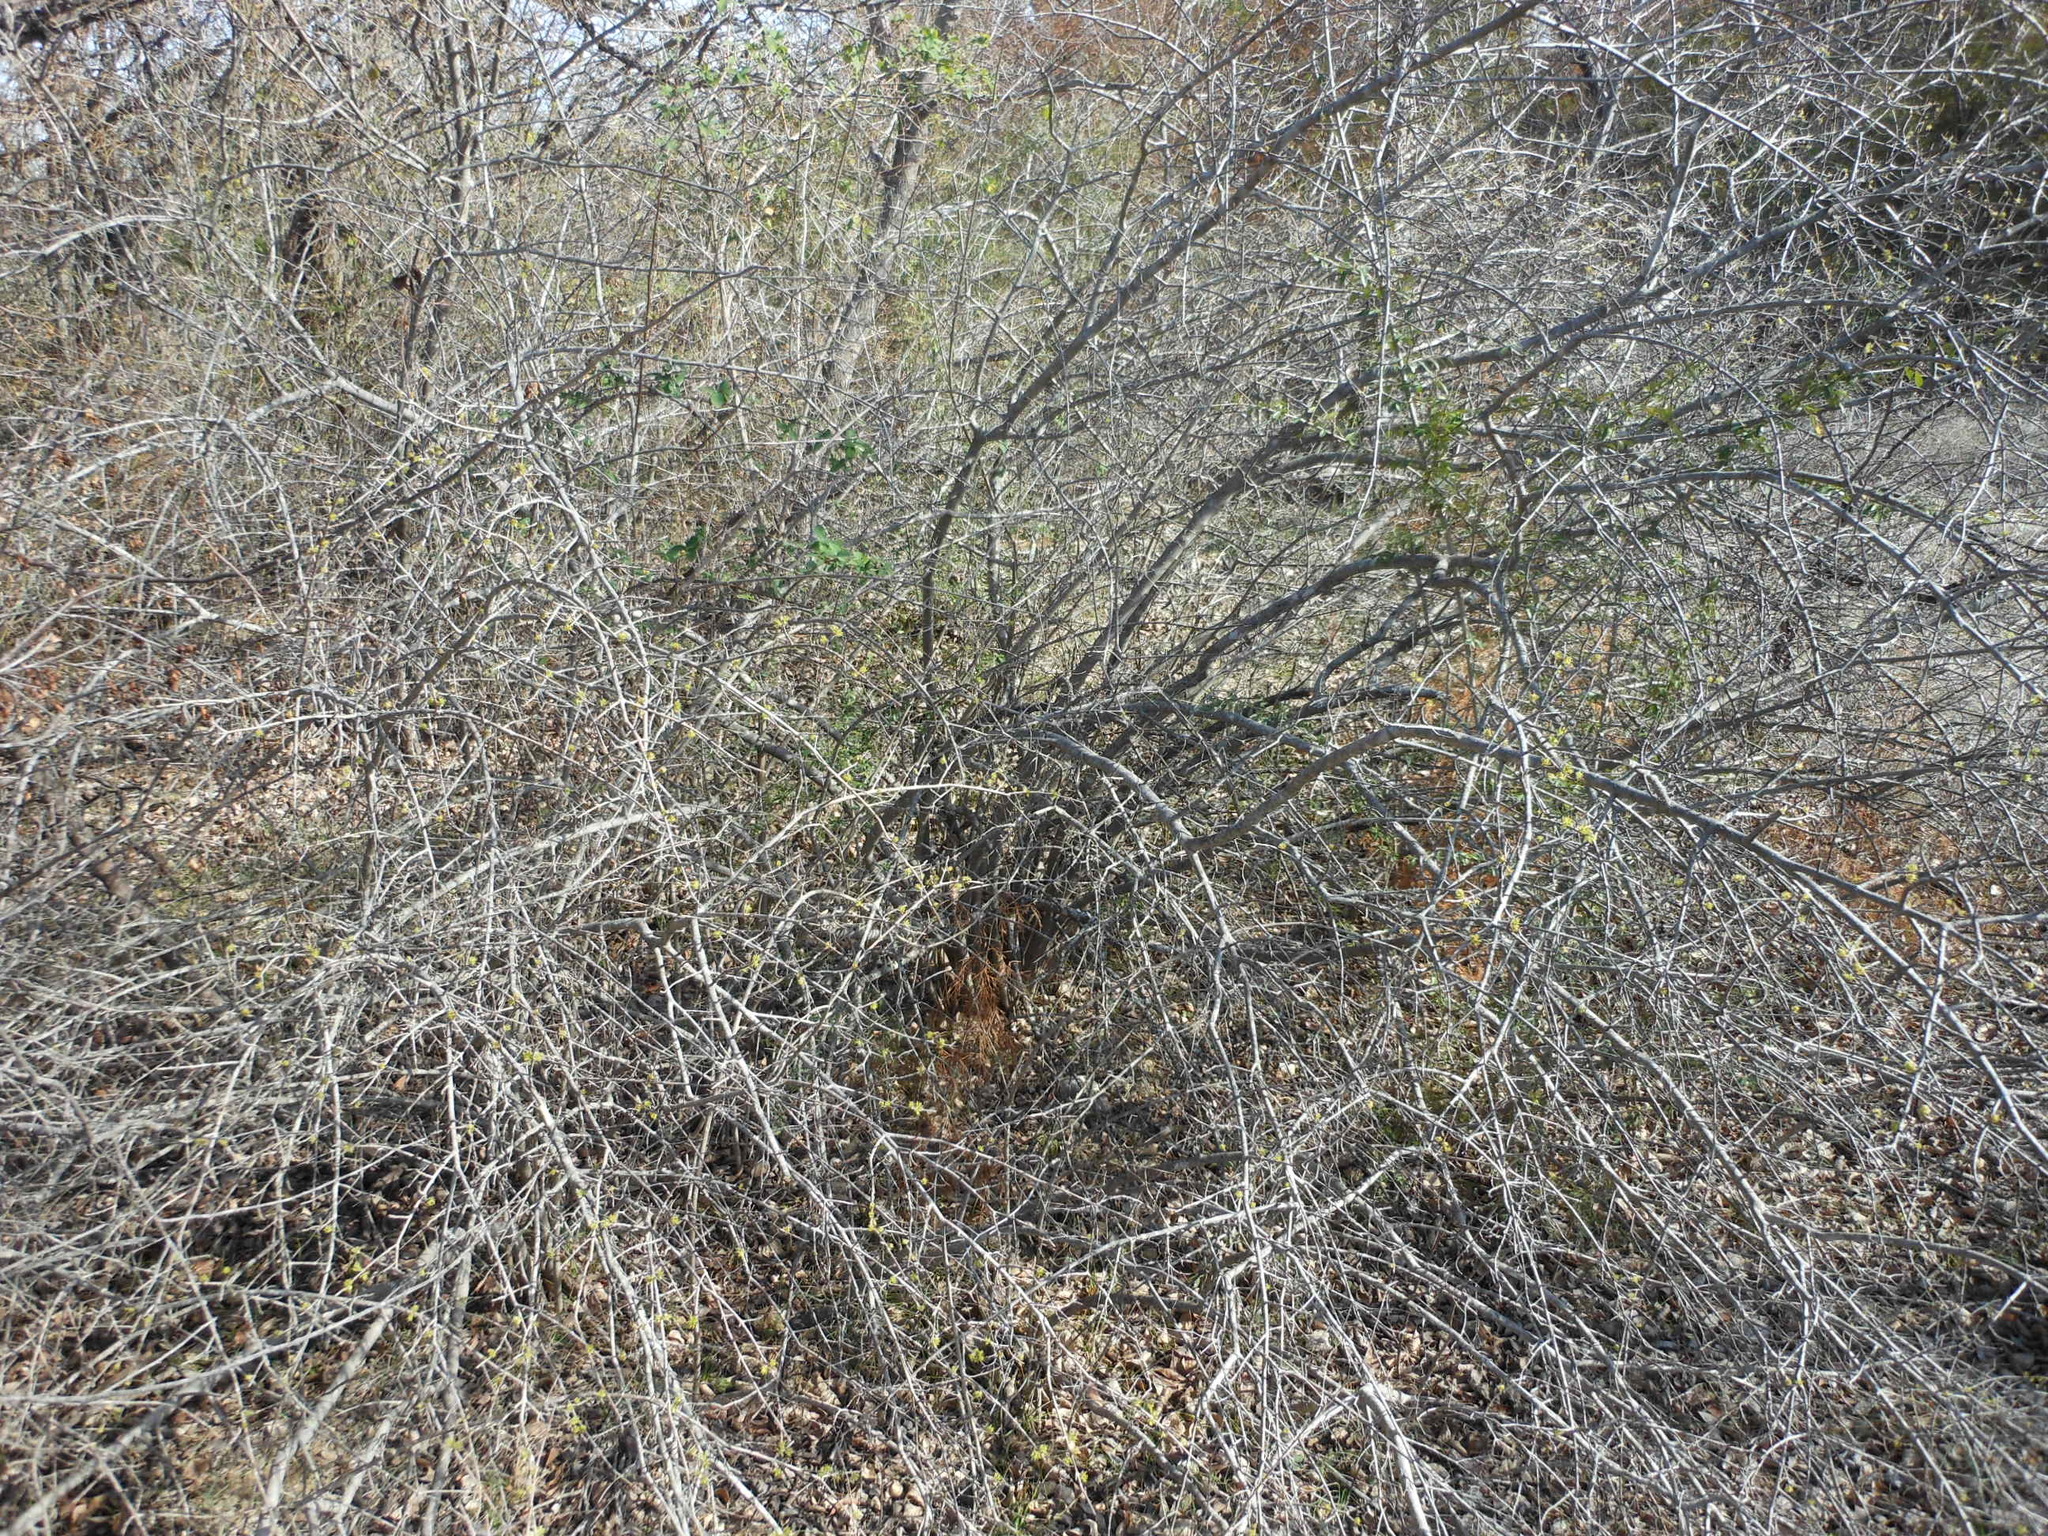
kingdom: Plantae
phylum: Tracheophyta
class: Magnoliopsida
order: Lamiales
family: Oleaceae
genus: Forestiera
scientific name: Forestiera pubescens
